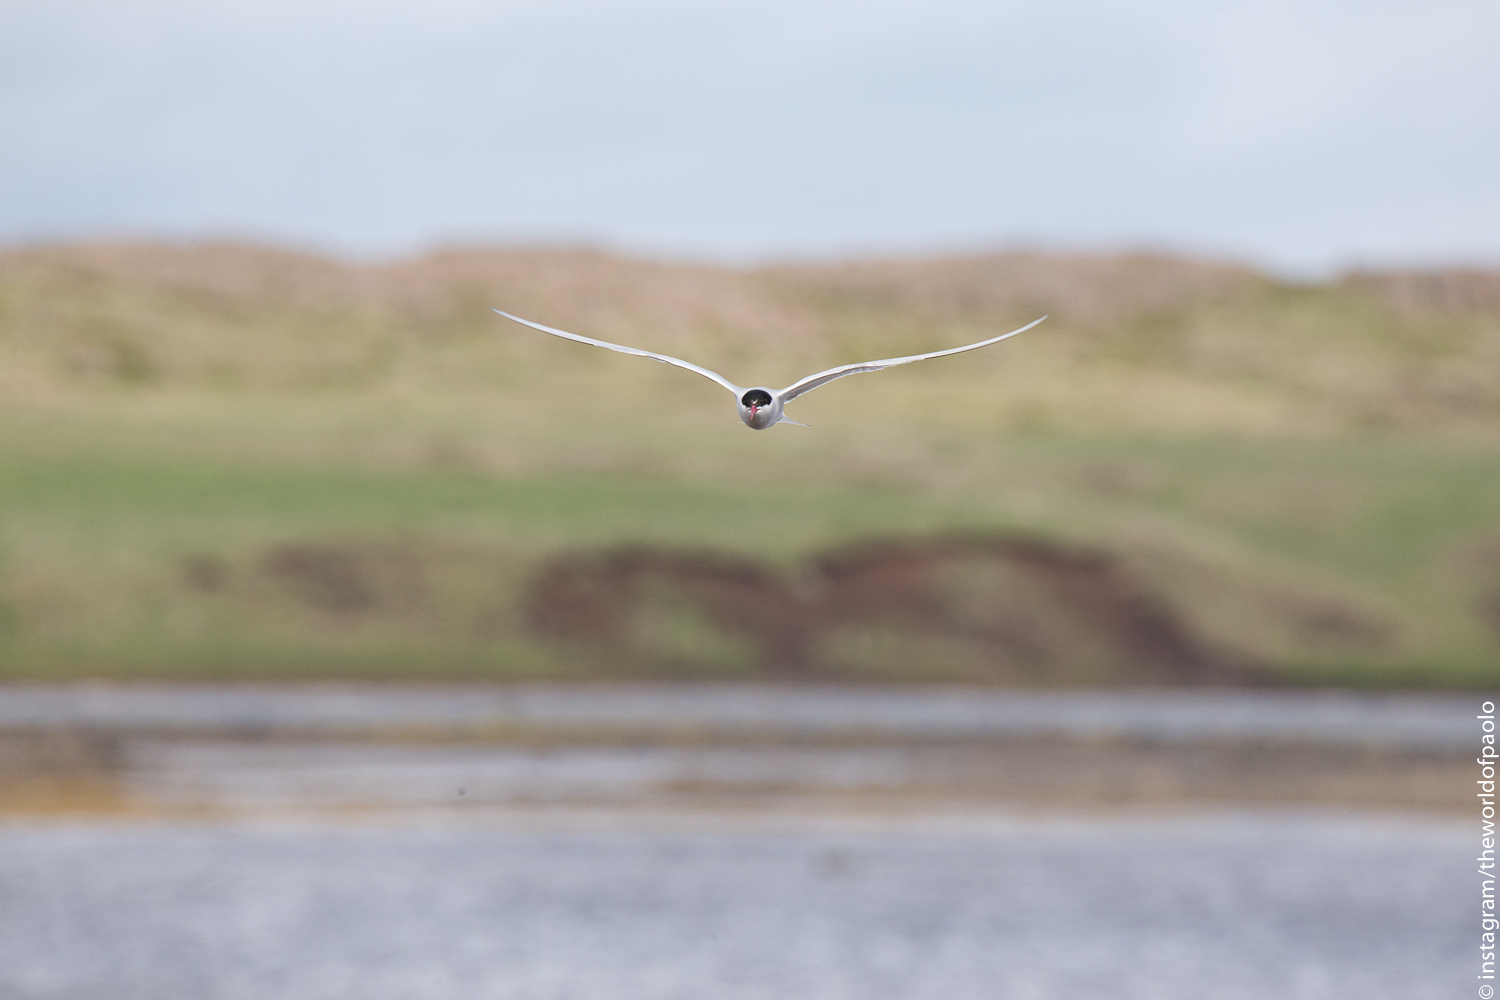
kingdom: Animalia
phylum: Chordata
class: Aves
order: Charadriiformes
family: Laridae
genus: Sterna
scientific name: Sterna paradisaea
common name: Arctic tern
